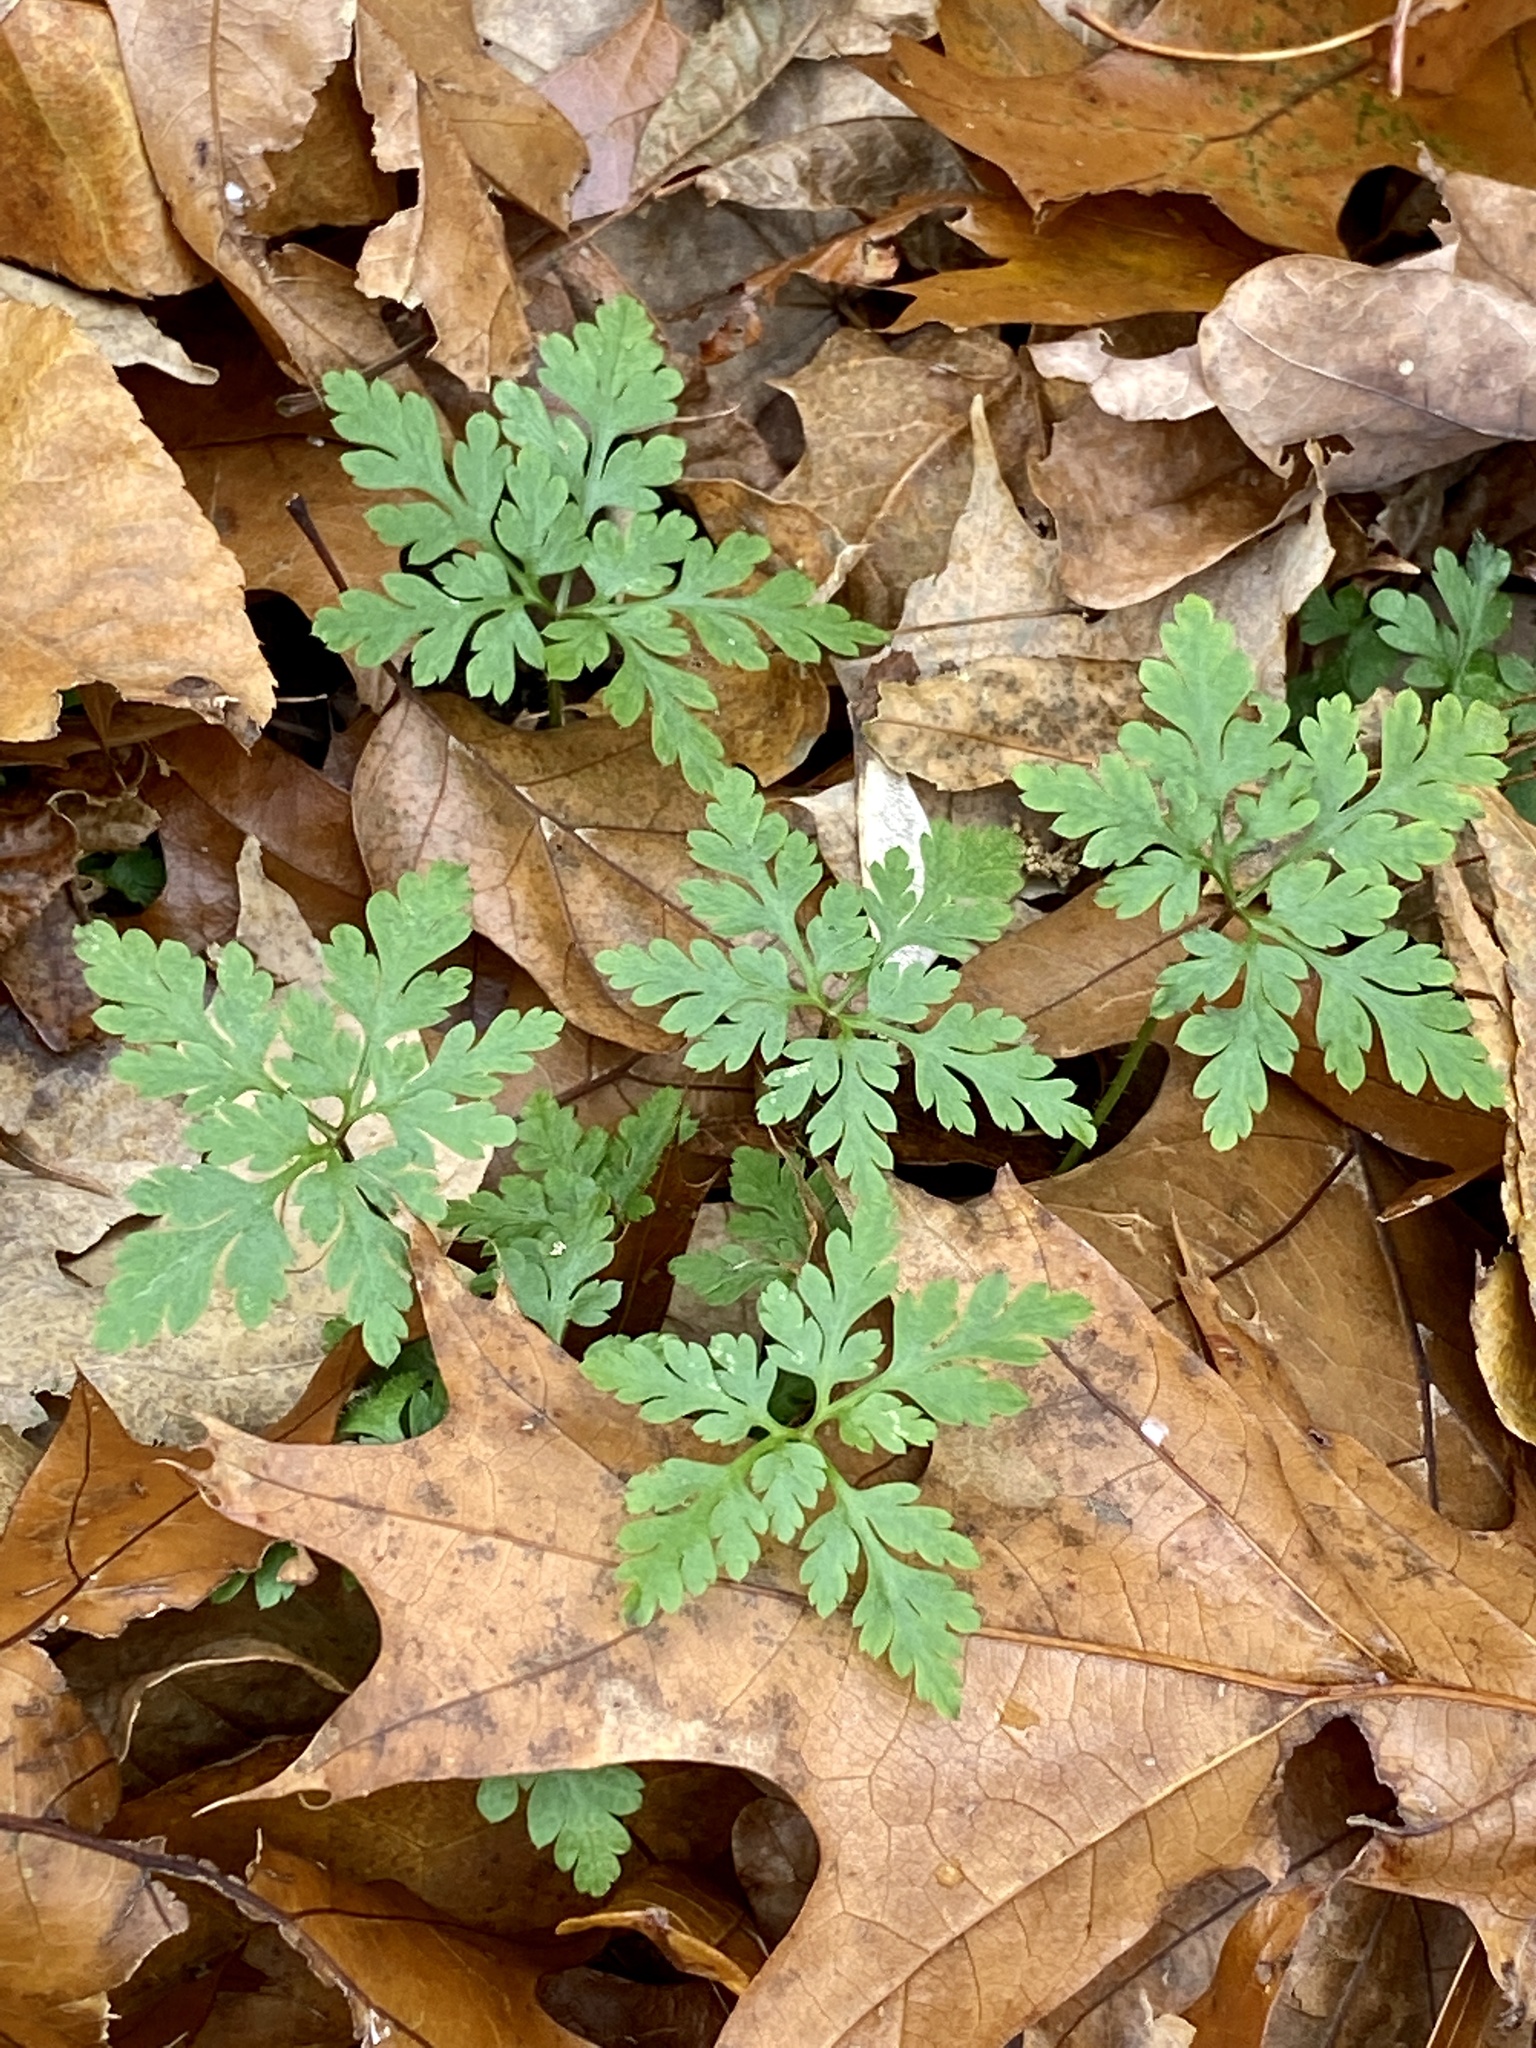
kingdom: Plantae
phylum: Tracheophyta
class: Magnoliopsida
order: Geraniales
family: Geraniaceae
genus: Geranium
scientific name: Geranium robertianum
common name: Herb-robert
